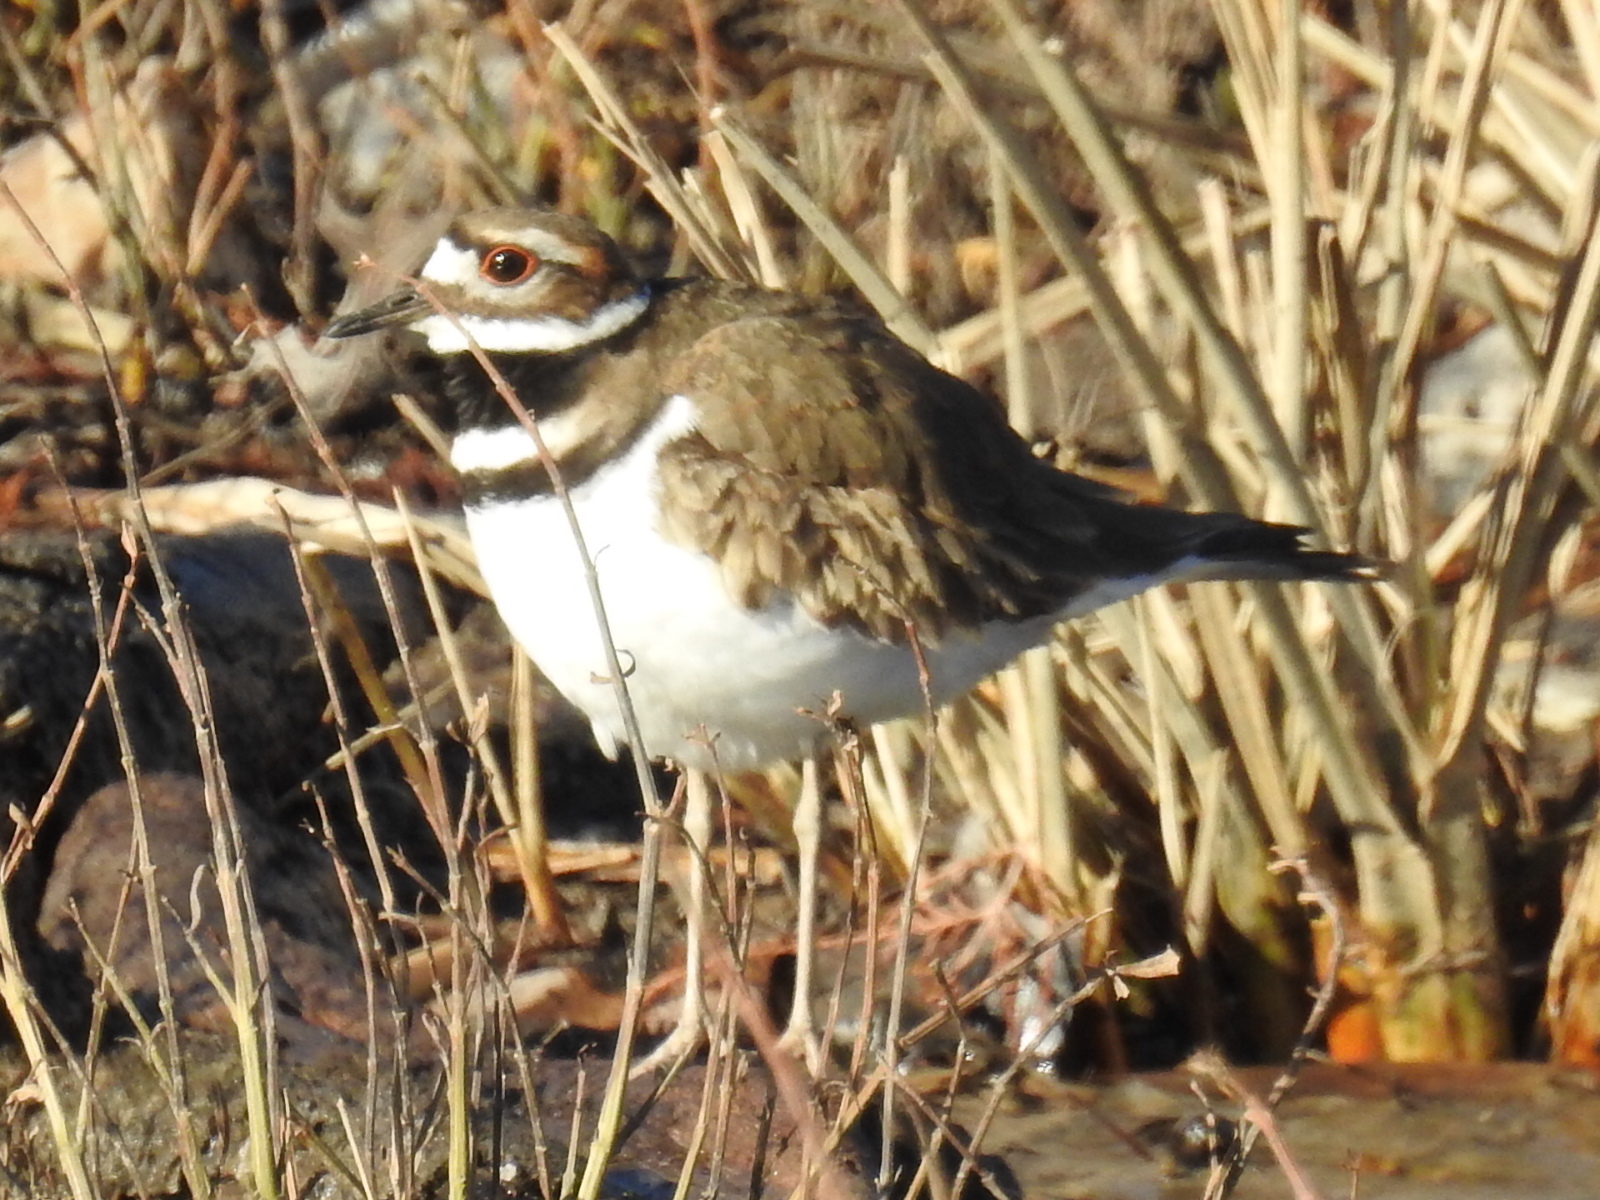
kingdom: Animalia
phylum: Chordata
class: Aves
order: Charadriiformes
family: Charadriidae
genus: Charadrius
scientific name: Charadrius vociferus
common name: Killdeer
